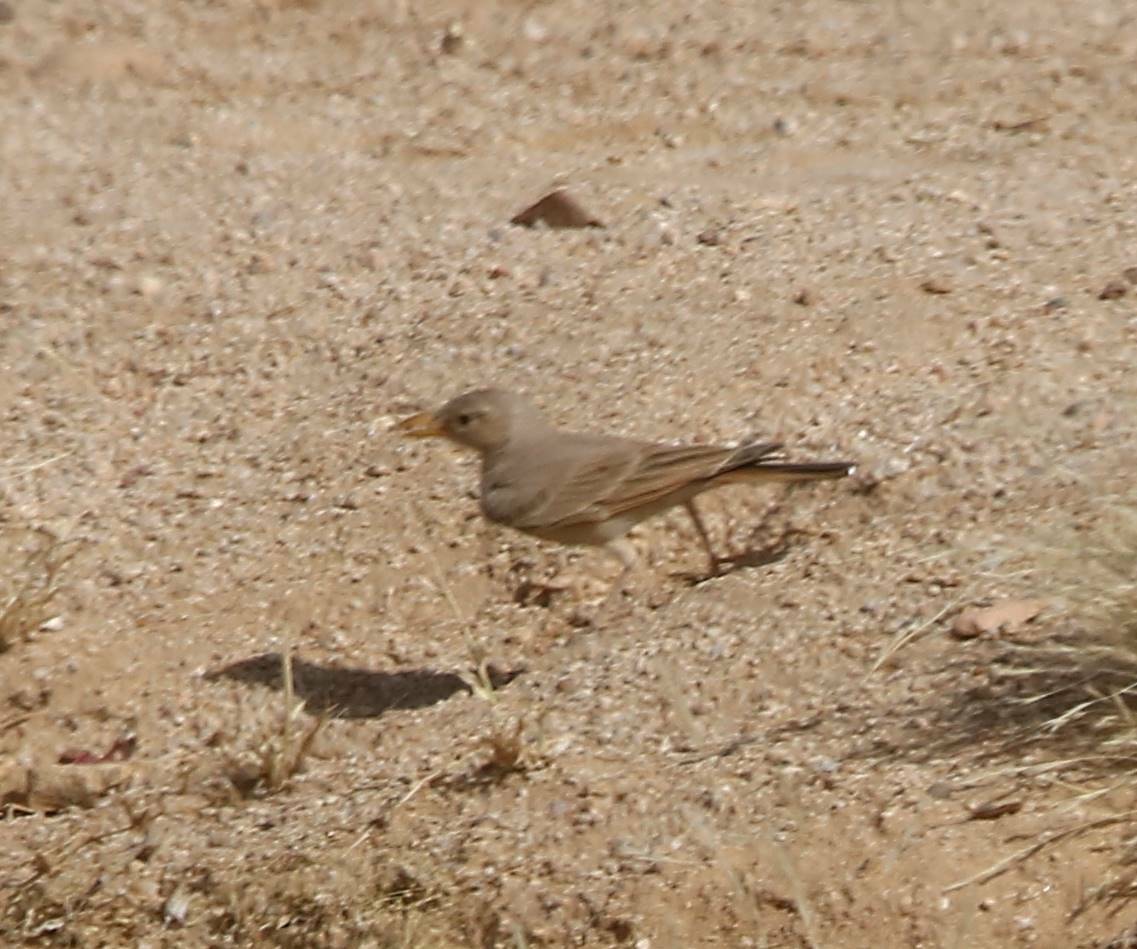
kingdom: Animalia
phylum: Chordata
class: Aves
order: Passeriformes
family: Alaudidae
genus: Ammomanes
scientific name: Ammomanes deserti
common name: Desert lark
